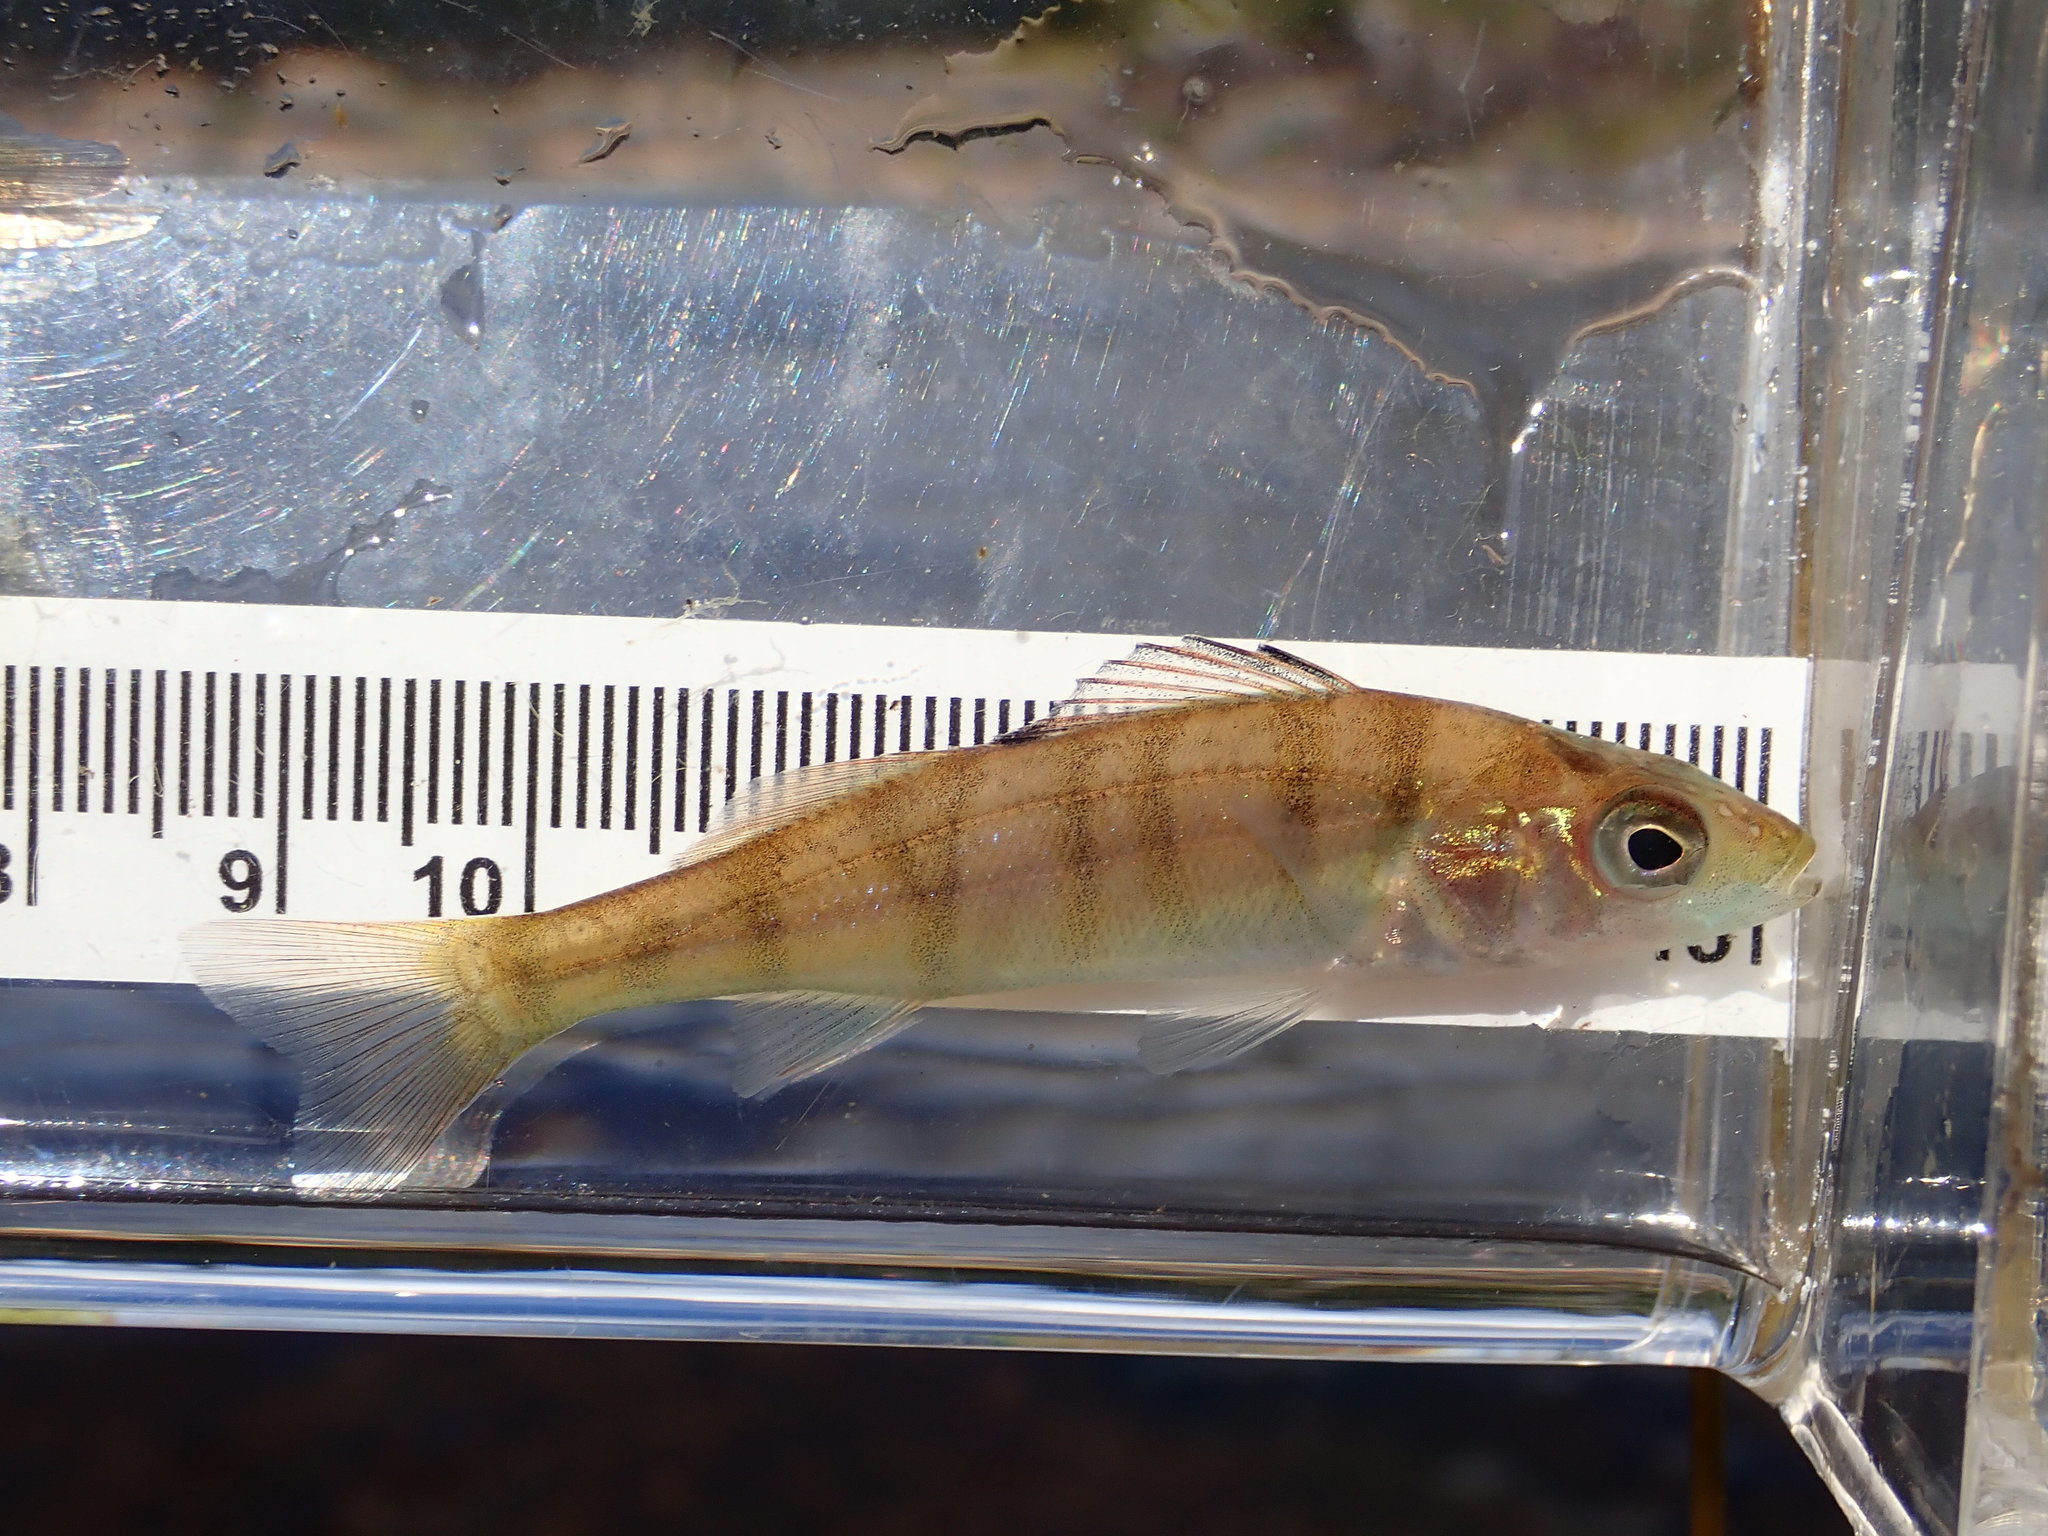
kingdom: Animalia
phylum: Chordata
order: Perciformes
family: Percidae
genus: Perca
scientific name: Perca flavescens
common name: Yellow perch
